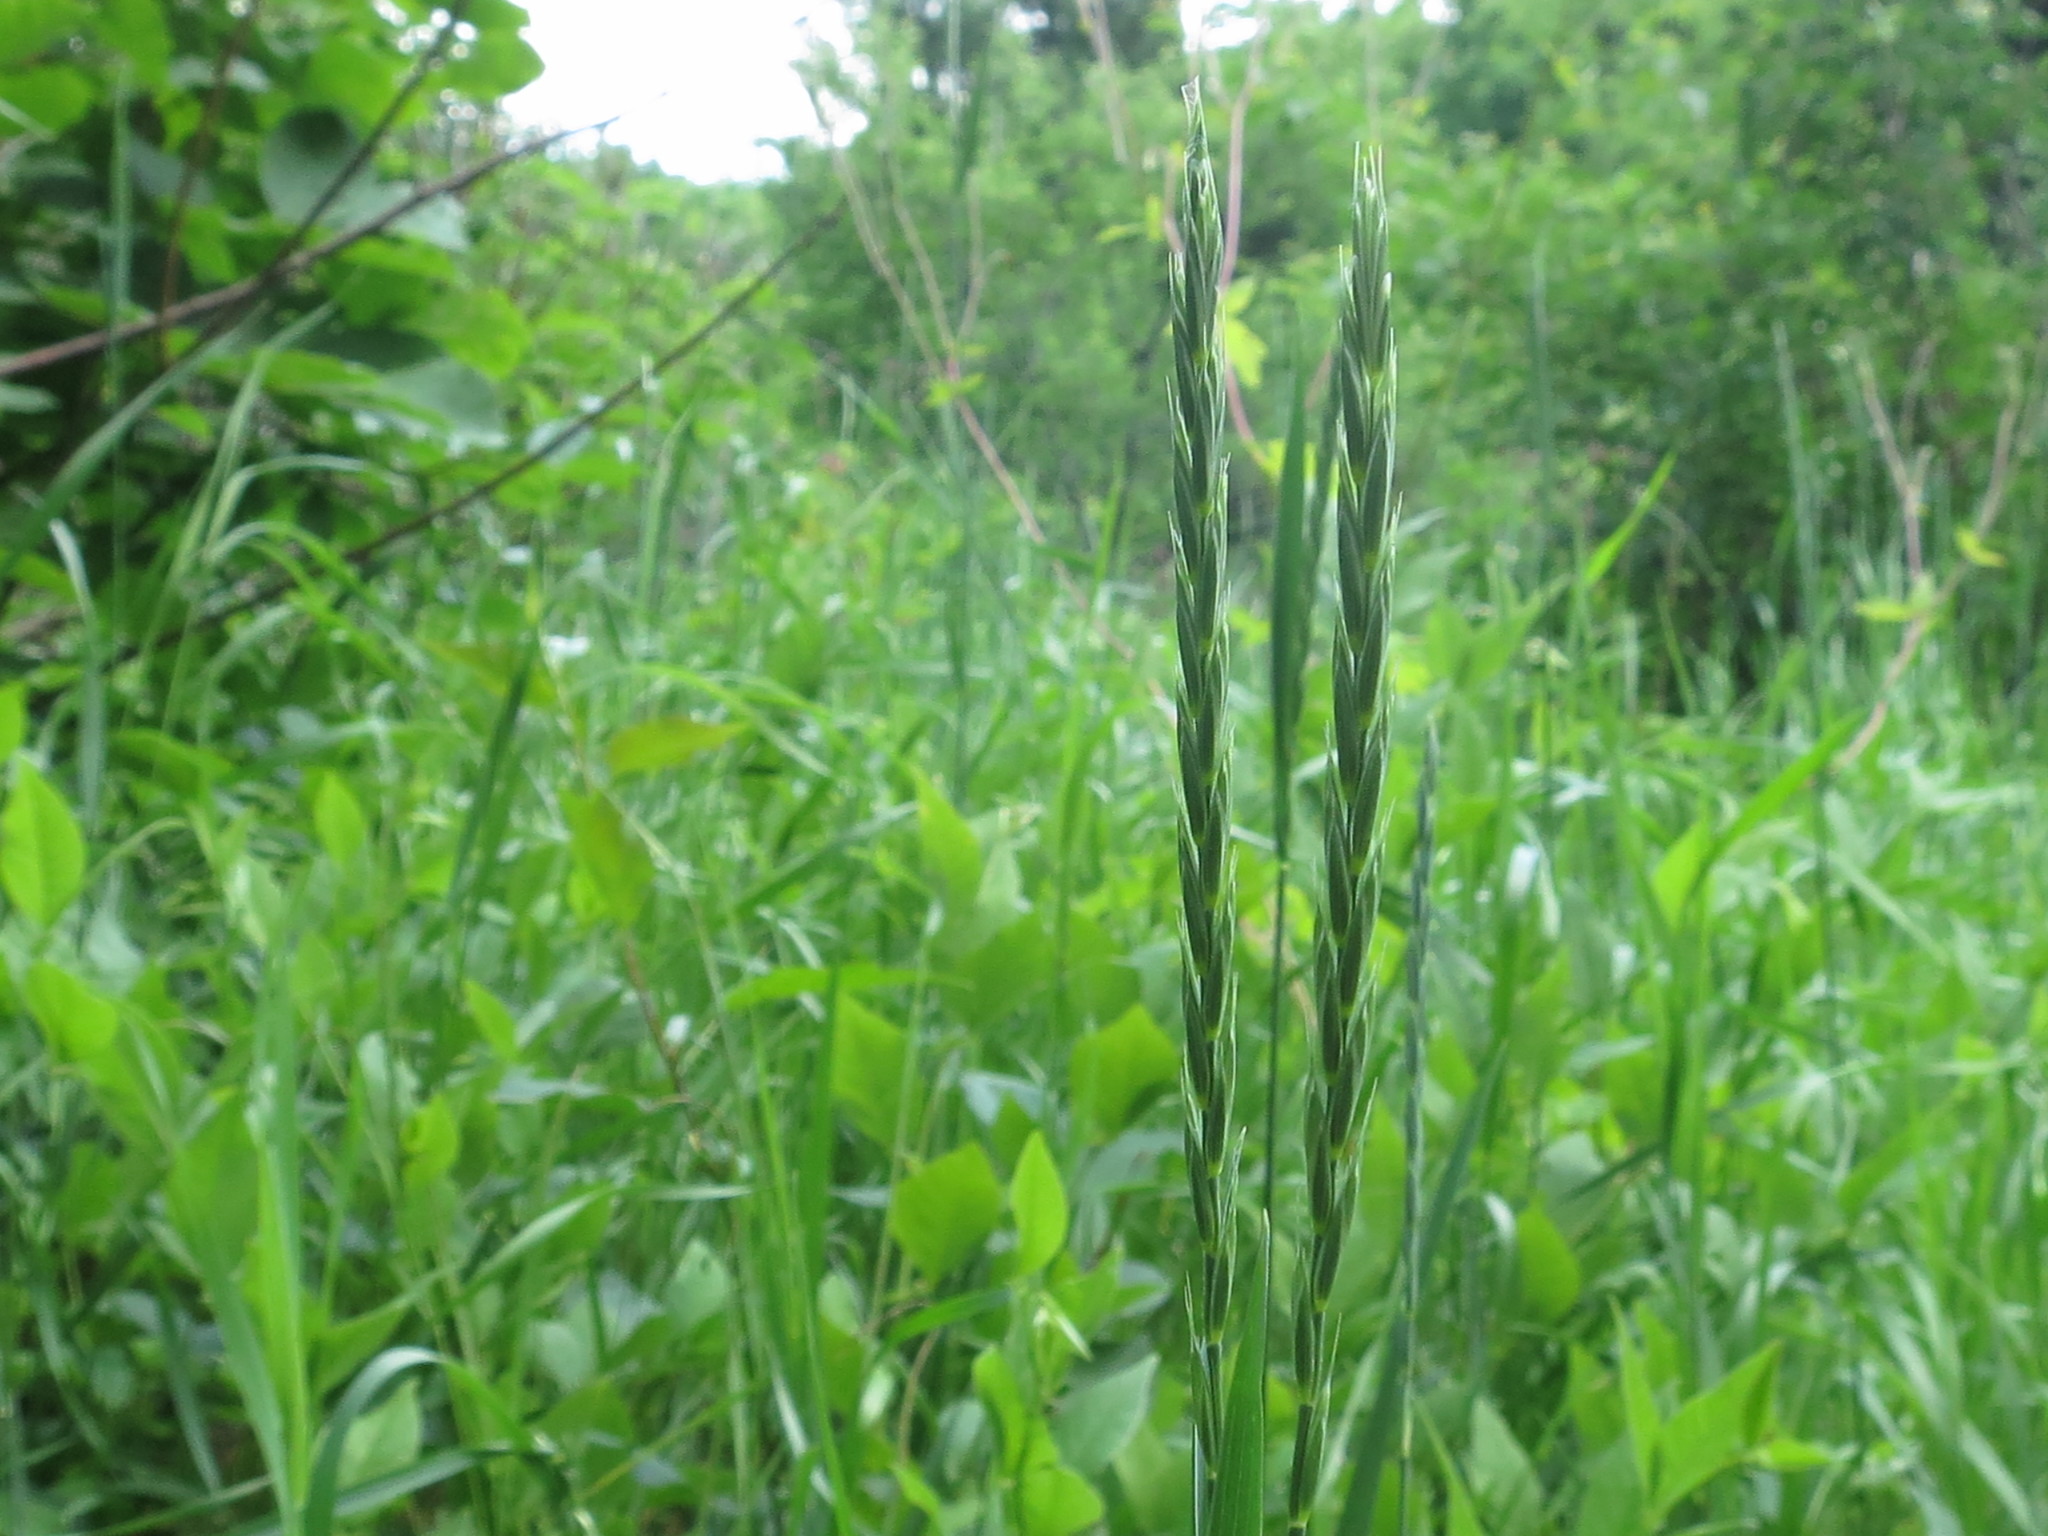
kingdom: Plantae
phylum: Tracheophyta
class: Liliopsida
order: Poales
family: Poaceae
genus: Elymus
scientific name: Elymus repens
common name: Quackgrass
